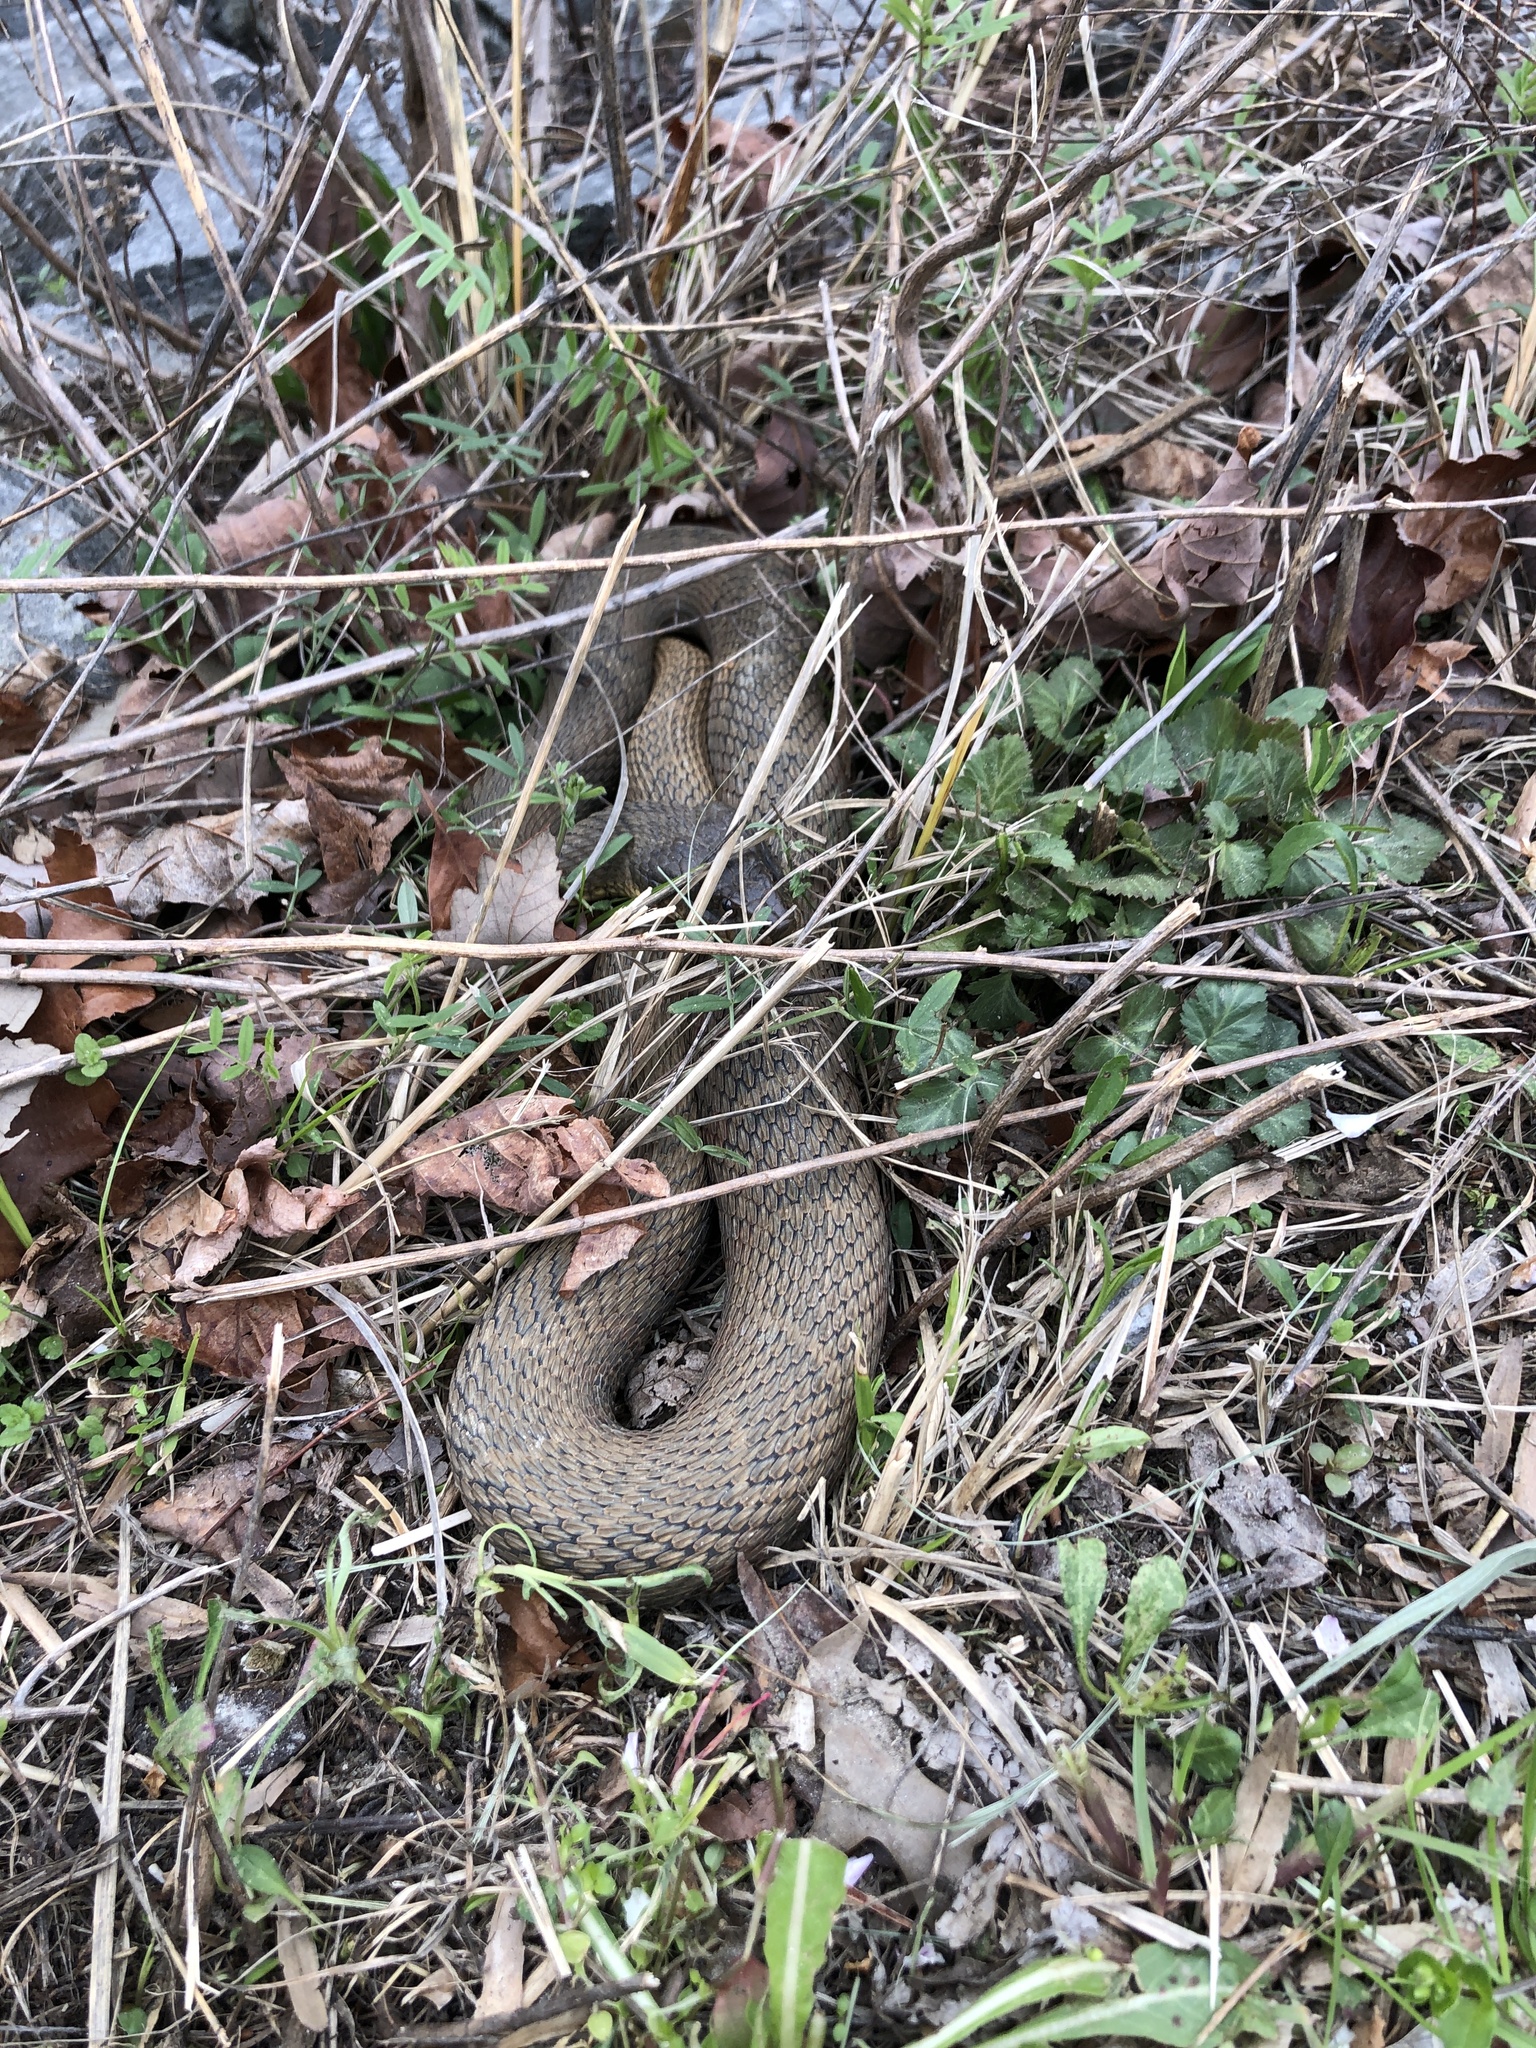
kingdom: Animalia
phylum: Chordata
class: Squamata
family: Colubridae
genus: Nerodia
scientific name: Nerodia sipedon
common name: Northern water snake
